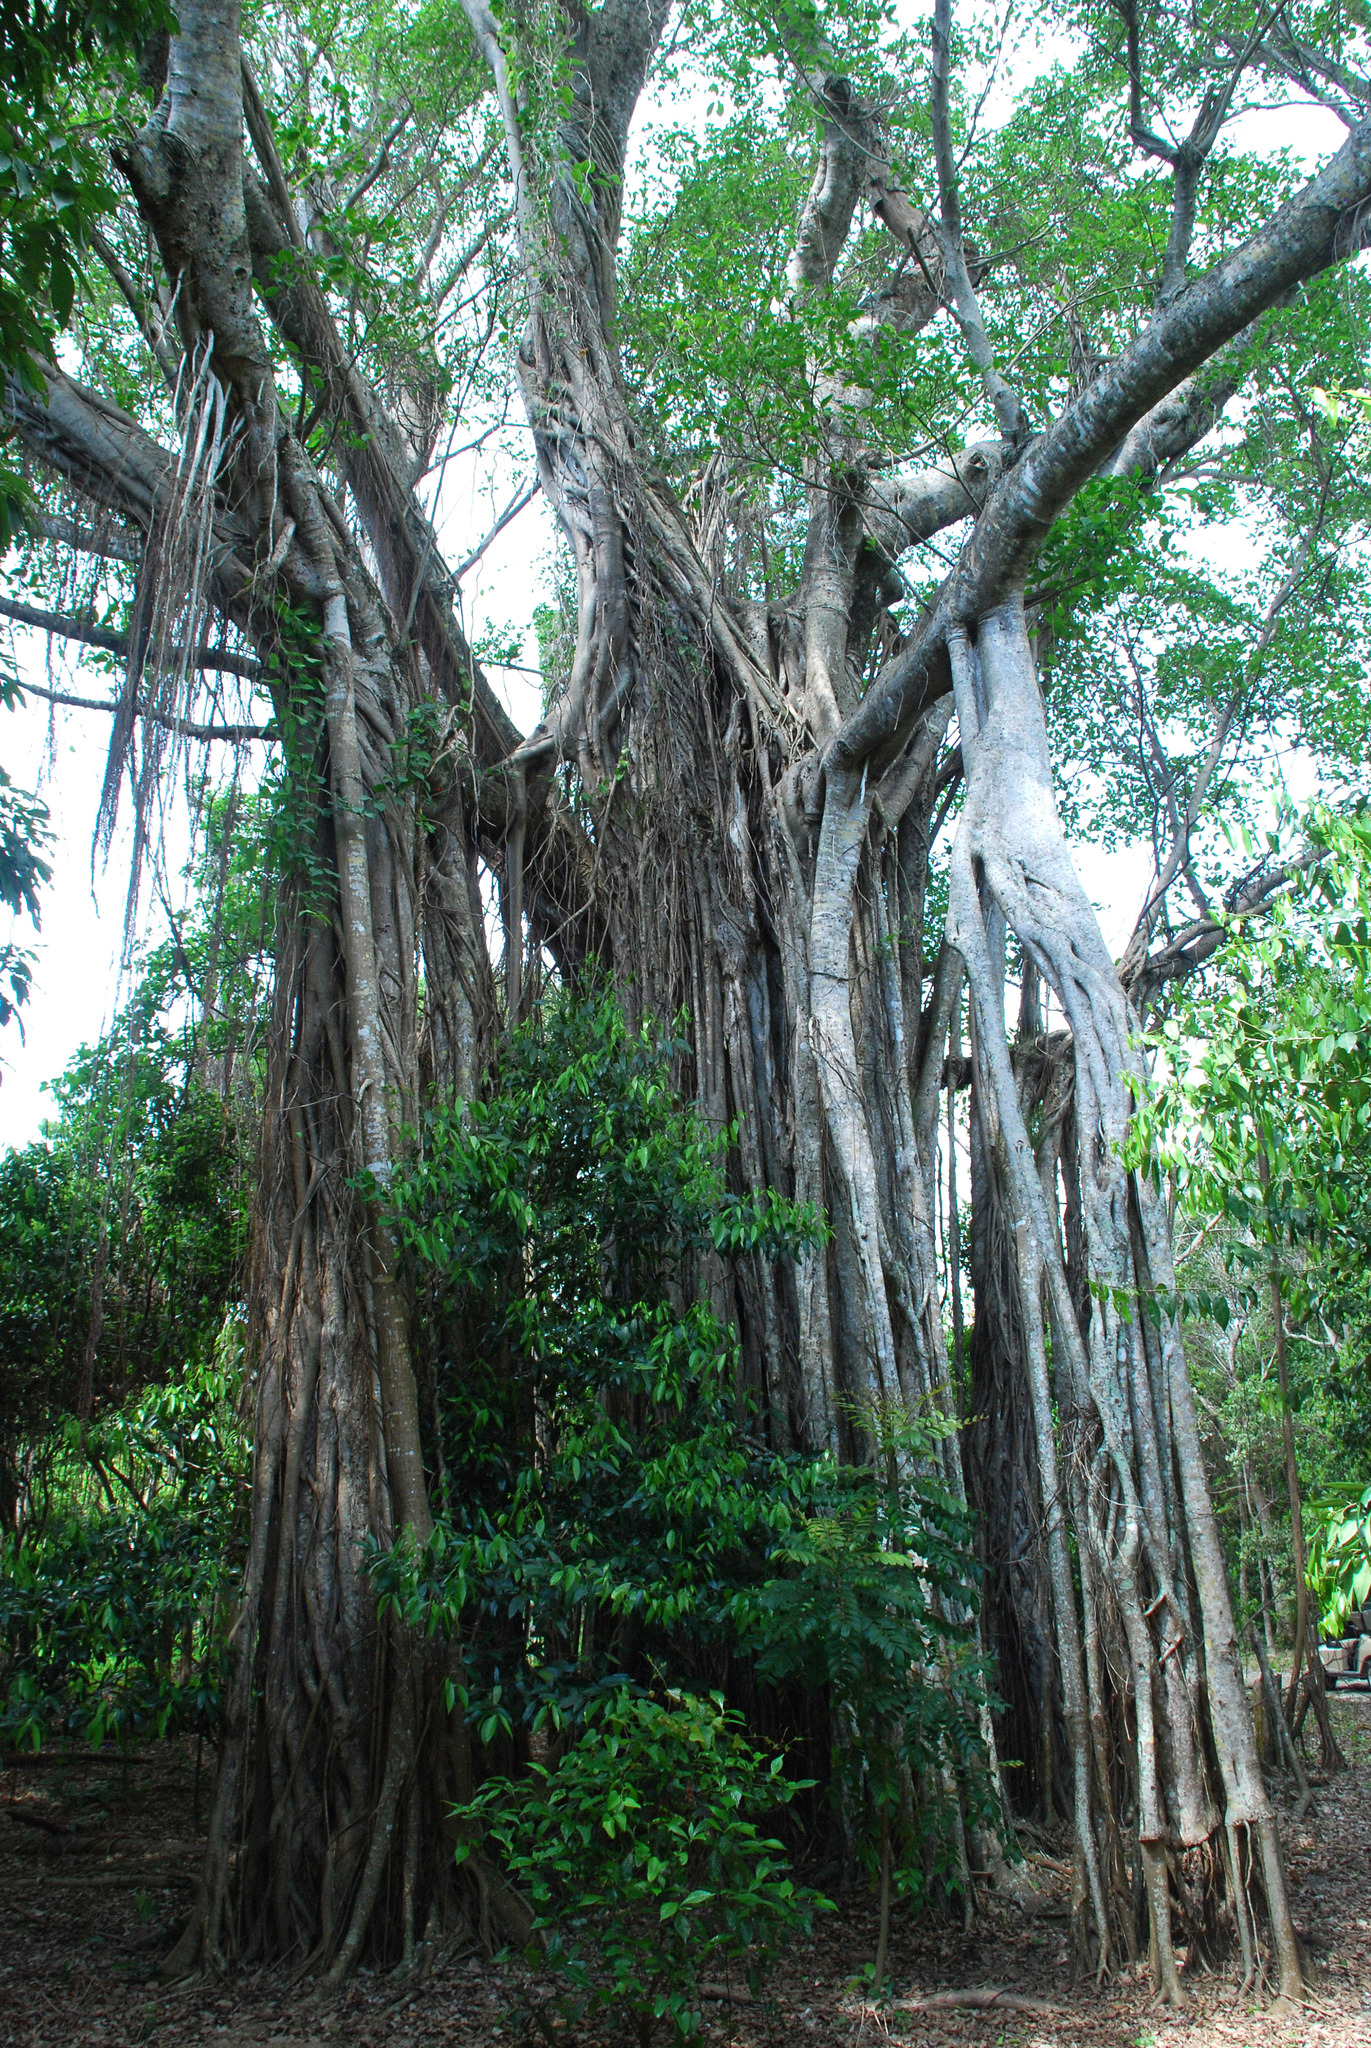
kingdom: Plantae
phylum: Tracheophyta
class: Magnoliopsida
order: Rosales
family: Moraceae
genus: Ficus
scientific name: Ficus aurea
